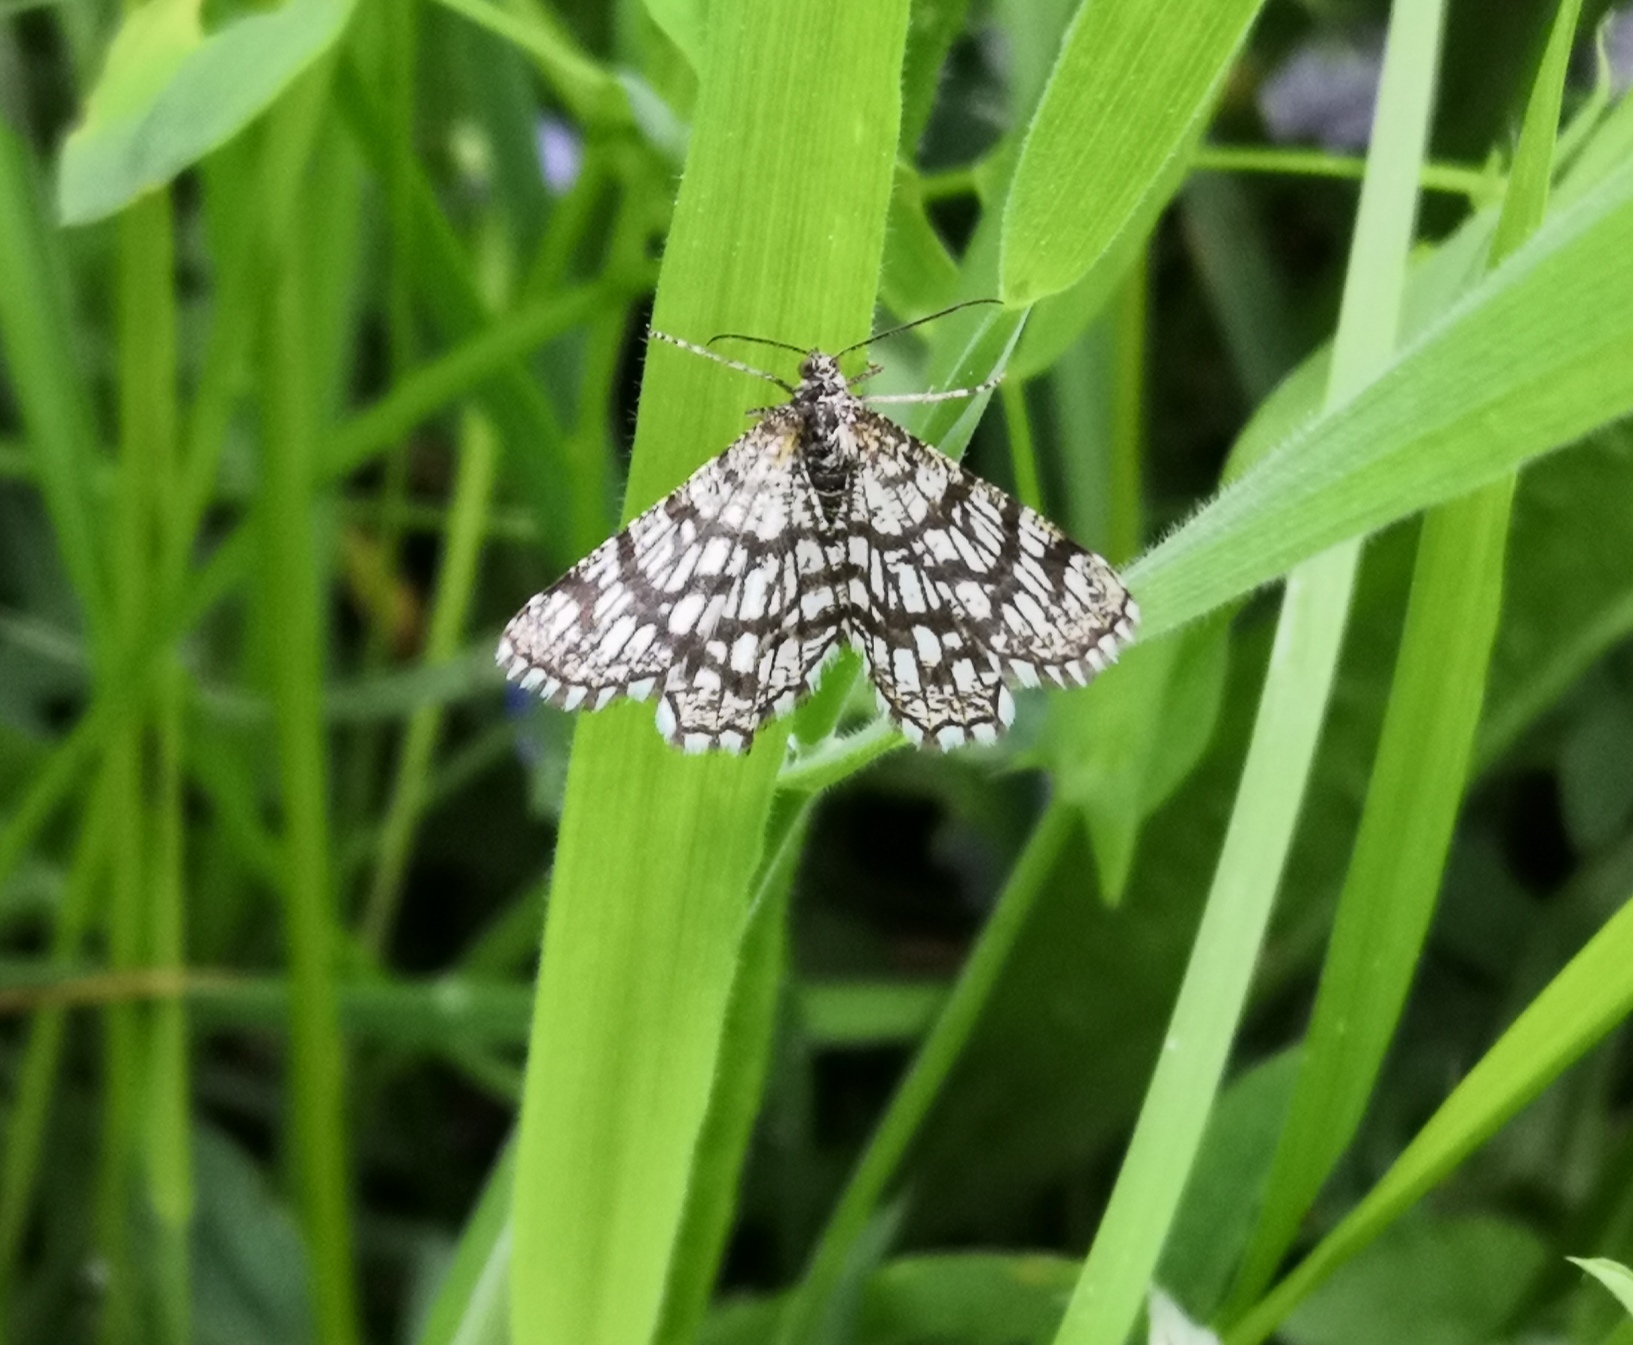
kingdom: Animalia
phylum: Arthropoda
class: Insecta
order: Lepidoptera
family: Geometridae
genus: Chiasmia
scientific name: Chiasmia clathrata
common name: Latticed heath
